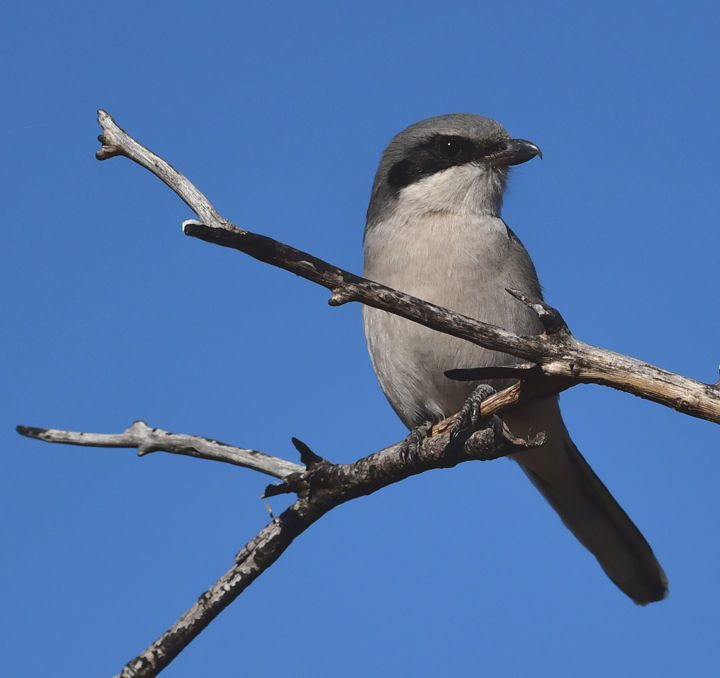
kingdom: Animalia
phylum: Chordata
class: Aves
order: Passeriformes
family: Laniidae
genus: Lanius
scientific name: Lanius ludovicianus
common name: Loggerhead shrike
